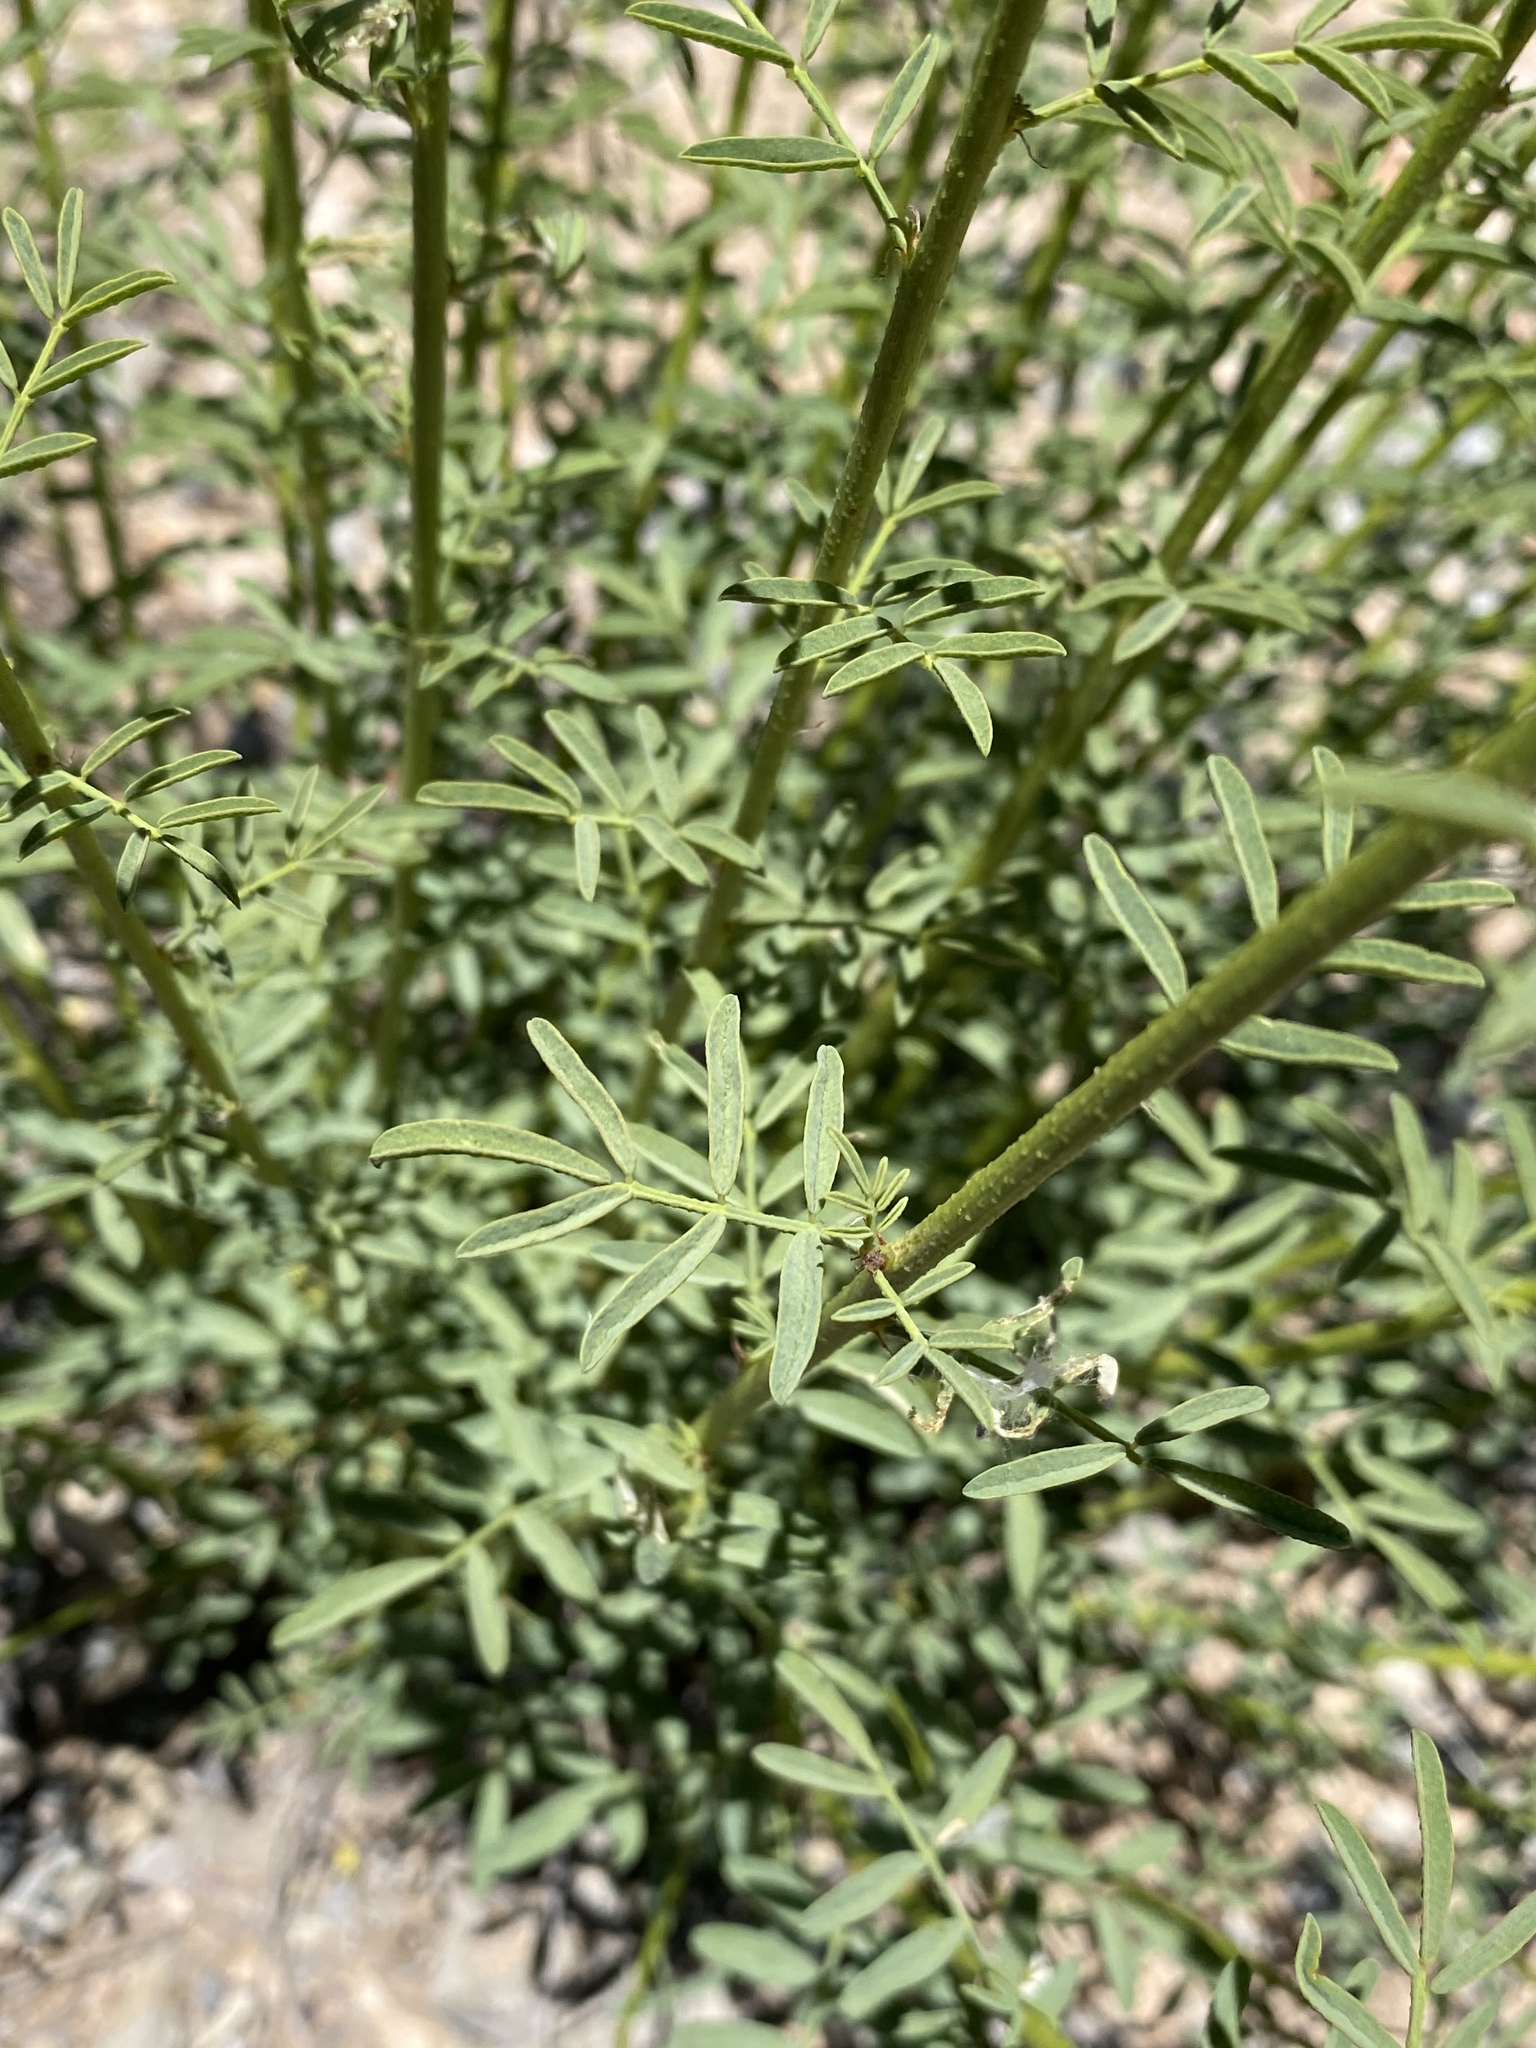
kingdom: Plantae
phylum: Tracheophyta
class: Magnoliopsida
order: Fabales
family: Fabaceae
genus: Dalea
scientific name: Dalea searlsiae
